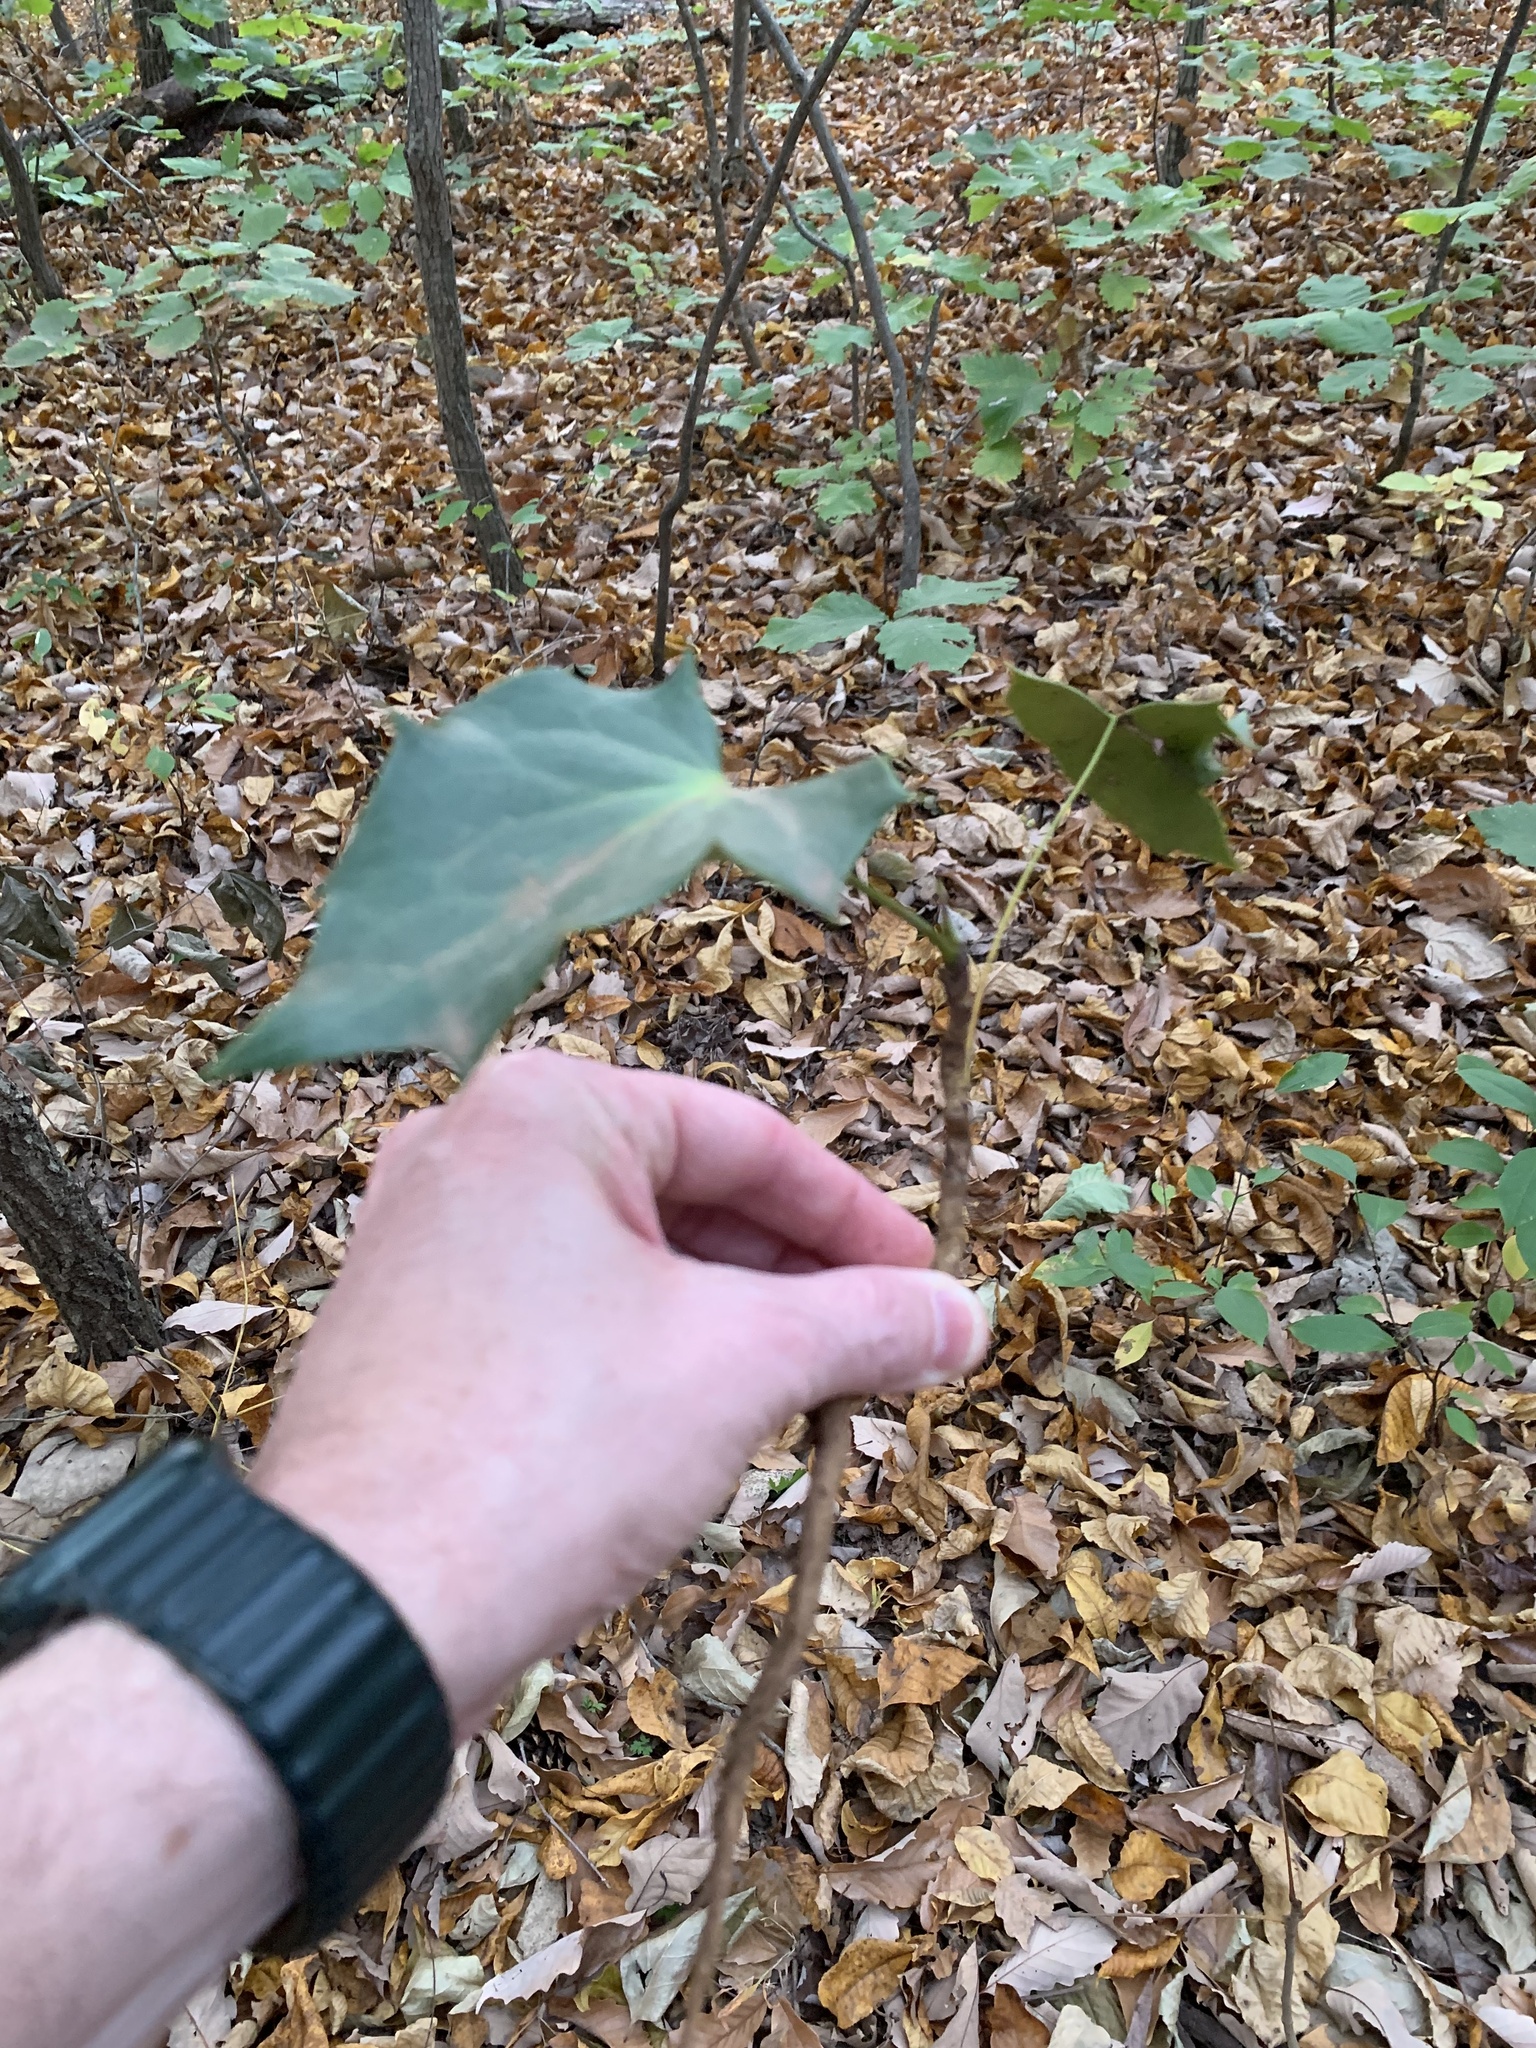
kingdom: Plantae
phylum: Tracheophyta
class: Magnoliopsida
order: Ranunculales
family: Berberidaceae
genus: Mahonia
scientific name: Mahonia bealei
